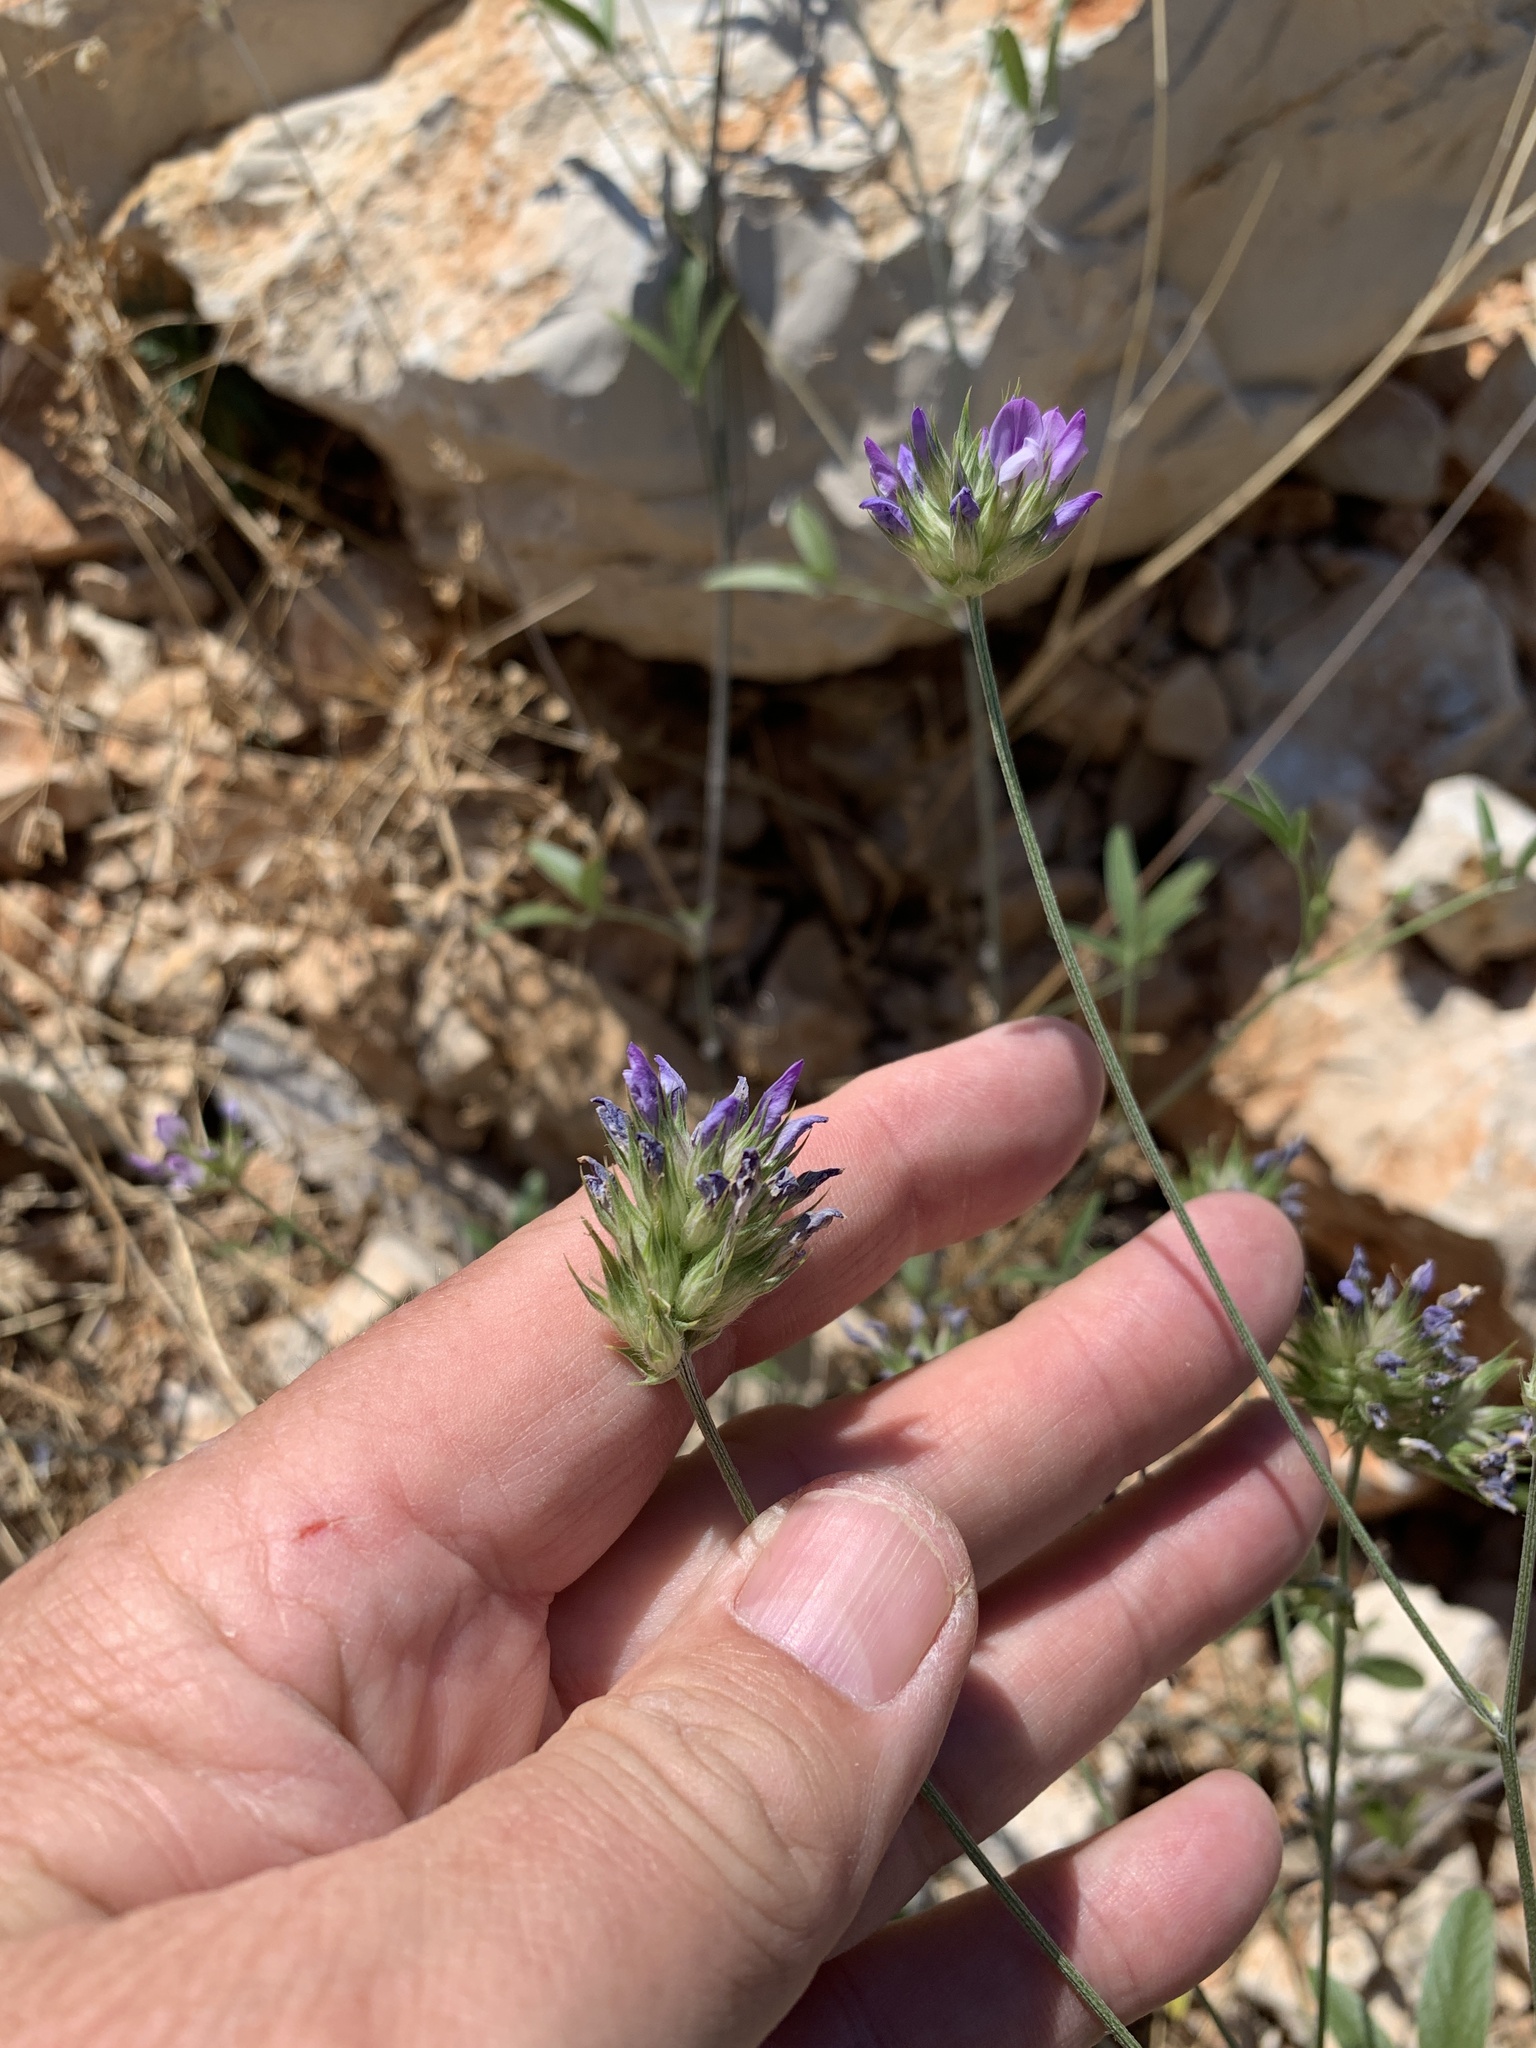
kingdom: Plantae
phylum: Tracheophyta
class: Magnoliopsida
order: Fabales
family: Fabaceae
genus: Bituminaria
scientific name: Bituminaria bituminosa
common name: Arabian pea
